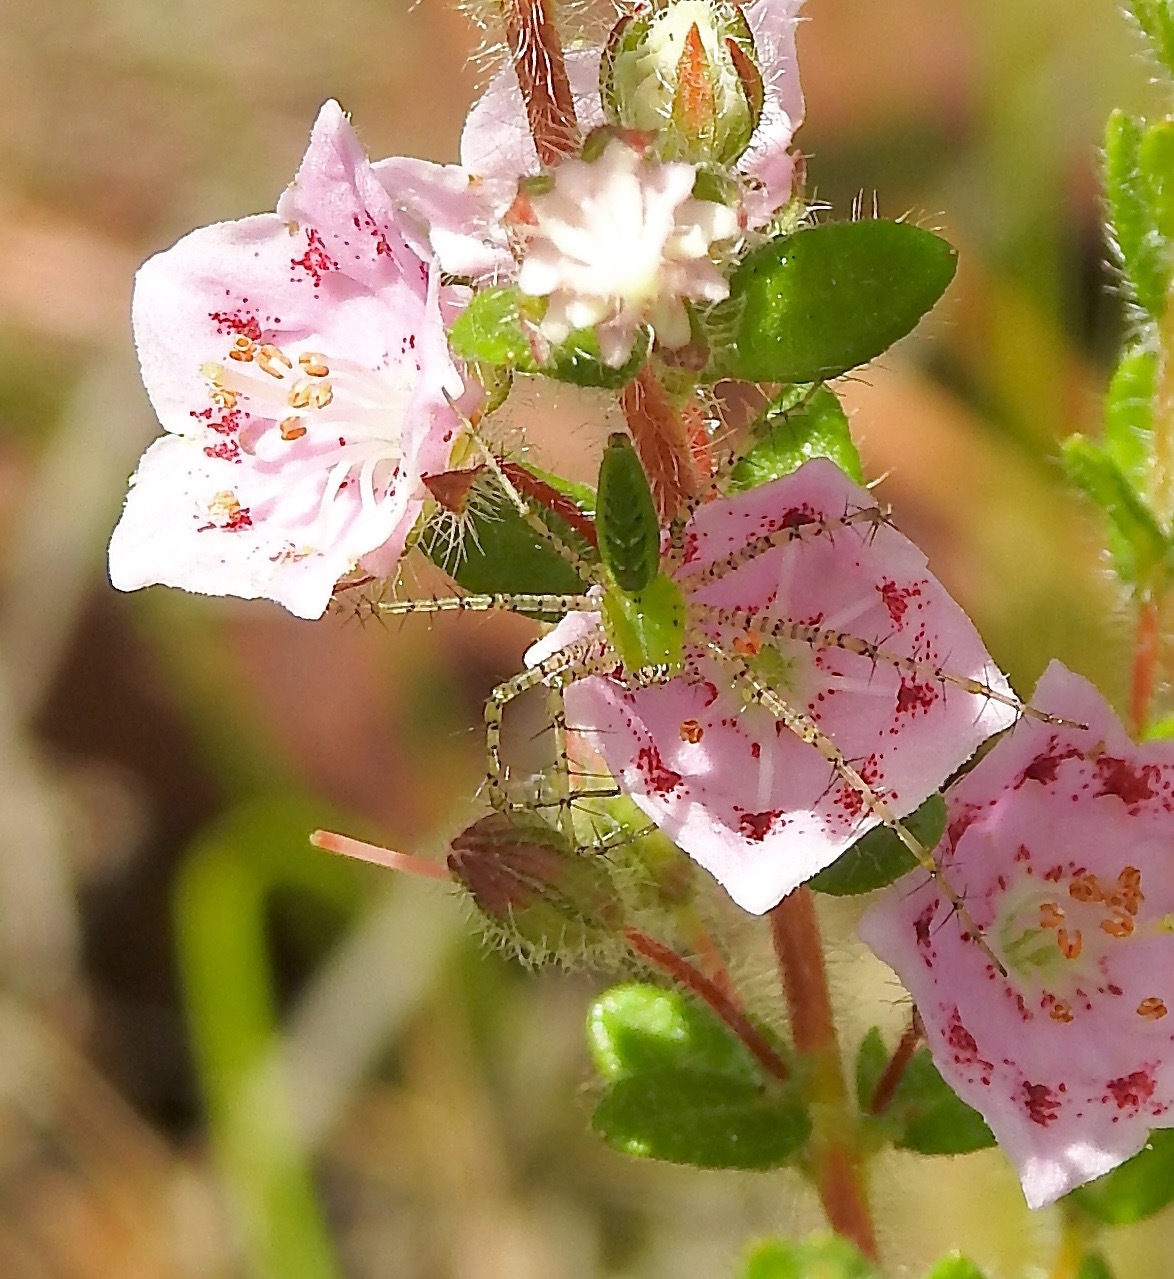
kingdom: Animalia
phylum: Arthropoda
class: Arachnida
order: Araneae
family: Oxyopidae
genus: Peucetia
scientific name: Peucetia viridans
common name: Lynx spiders
